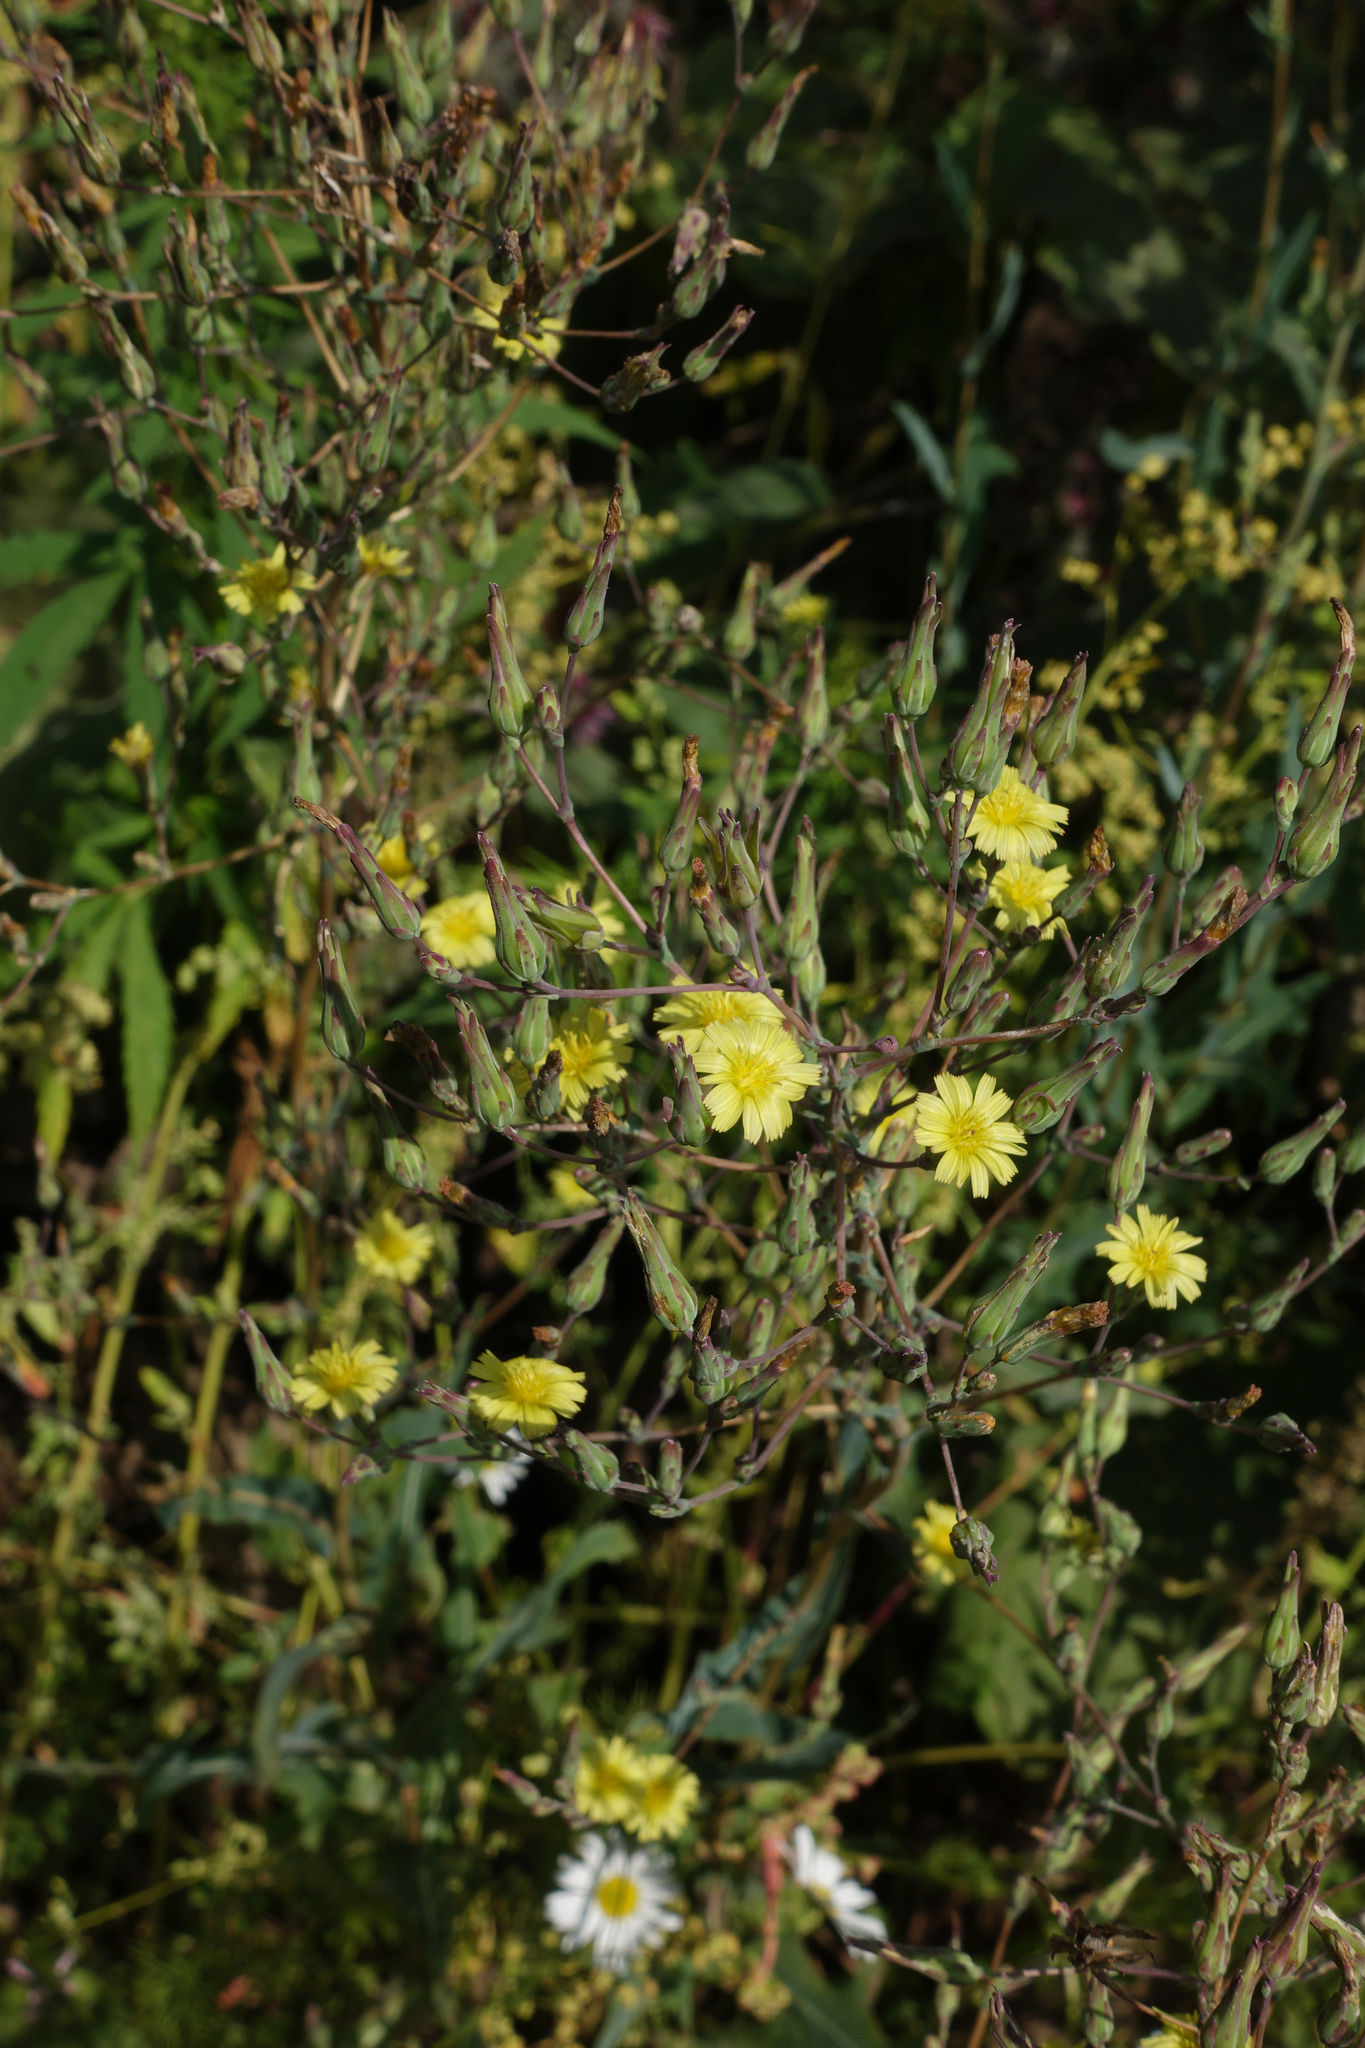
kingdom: Plantae
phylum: Tracheophyta
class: Magnoliopsida
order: Asterales
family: Asteraceae
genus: Lactuca
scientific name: Lactuca serriola
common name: Prickly lettuce
